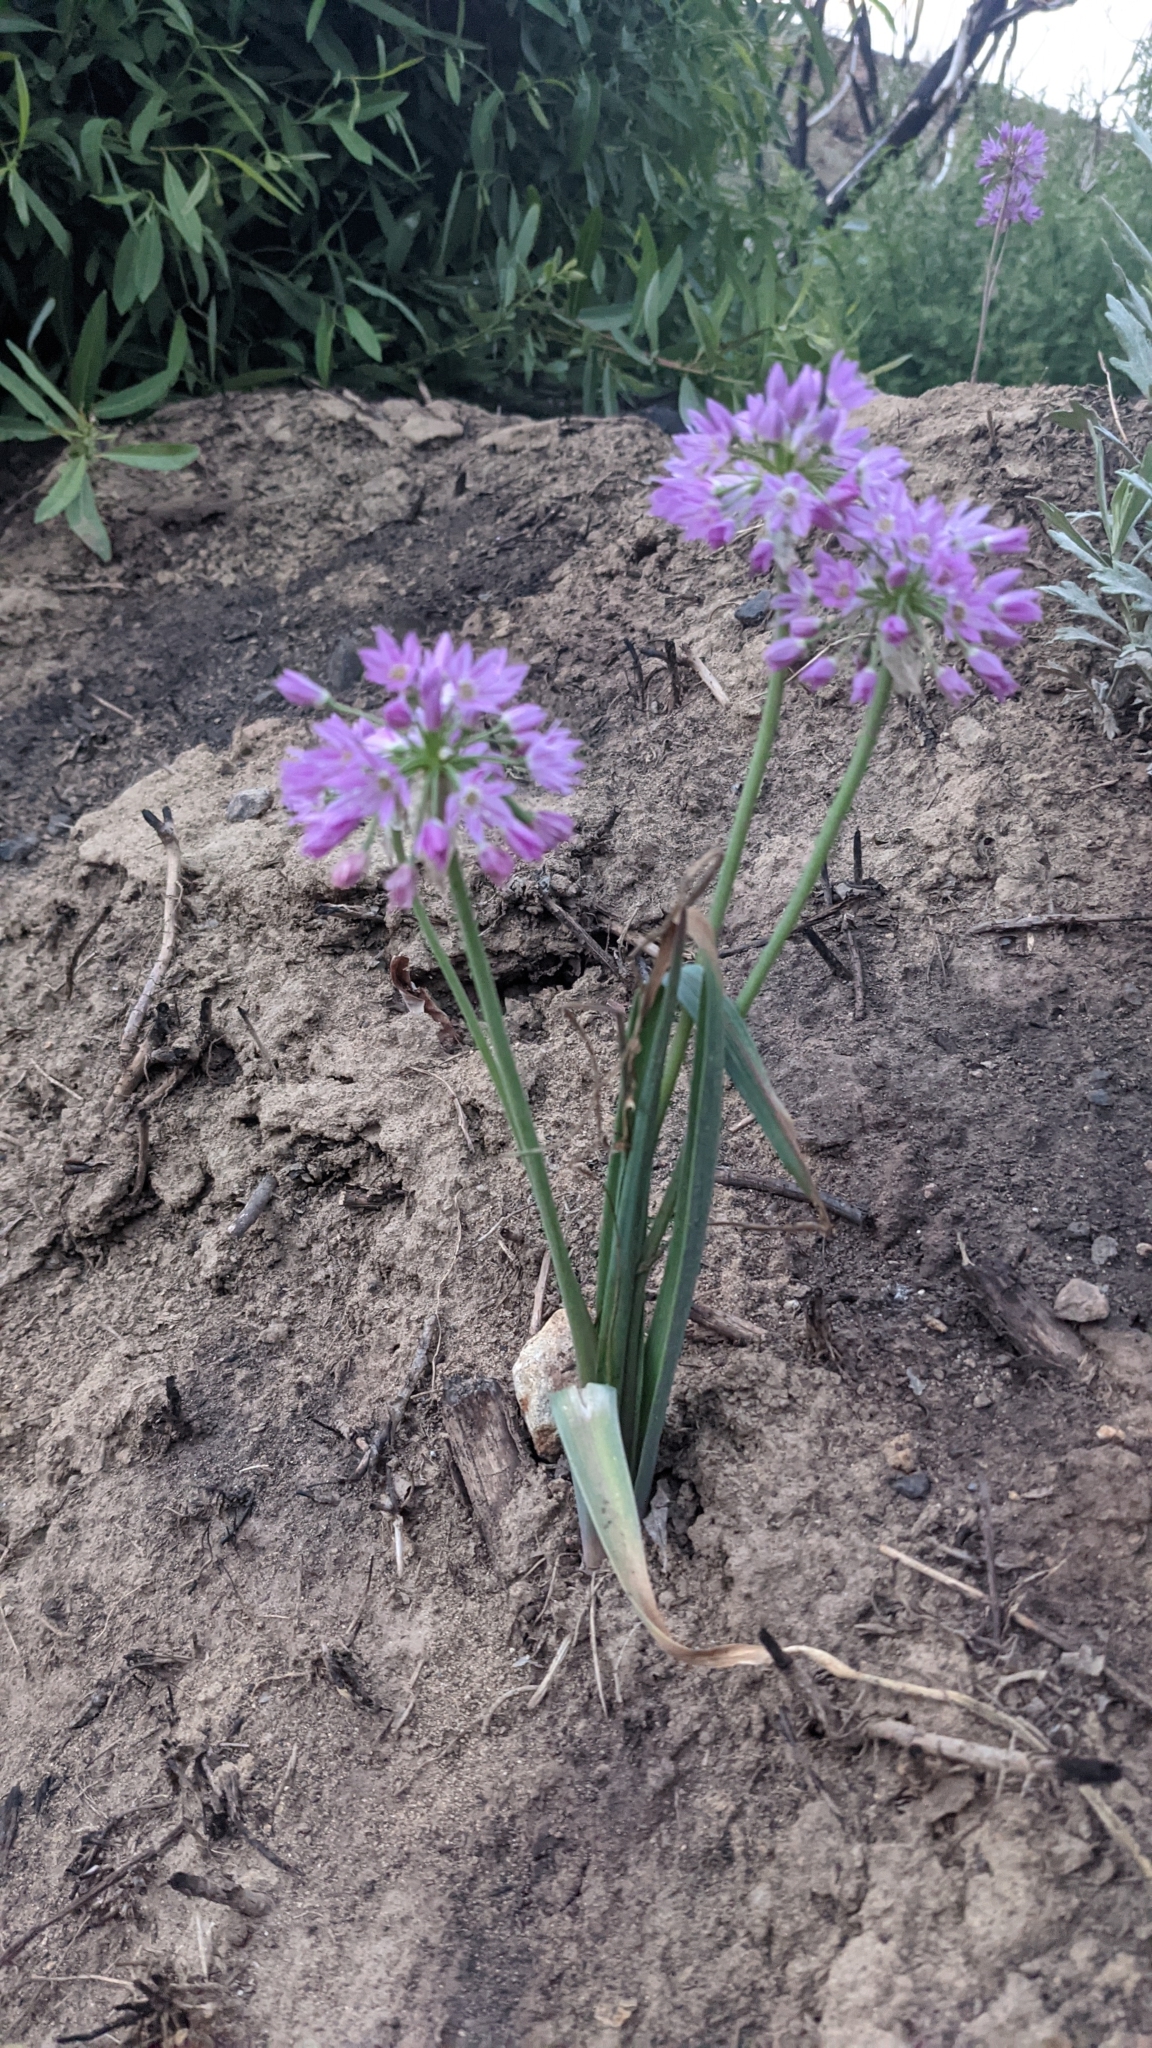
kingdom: Plantae
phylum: Tracheophyta
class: Liliopsida
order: Asparagales
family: Amaryllidaceae
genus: Allium
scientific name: Allium bisceptrum
